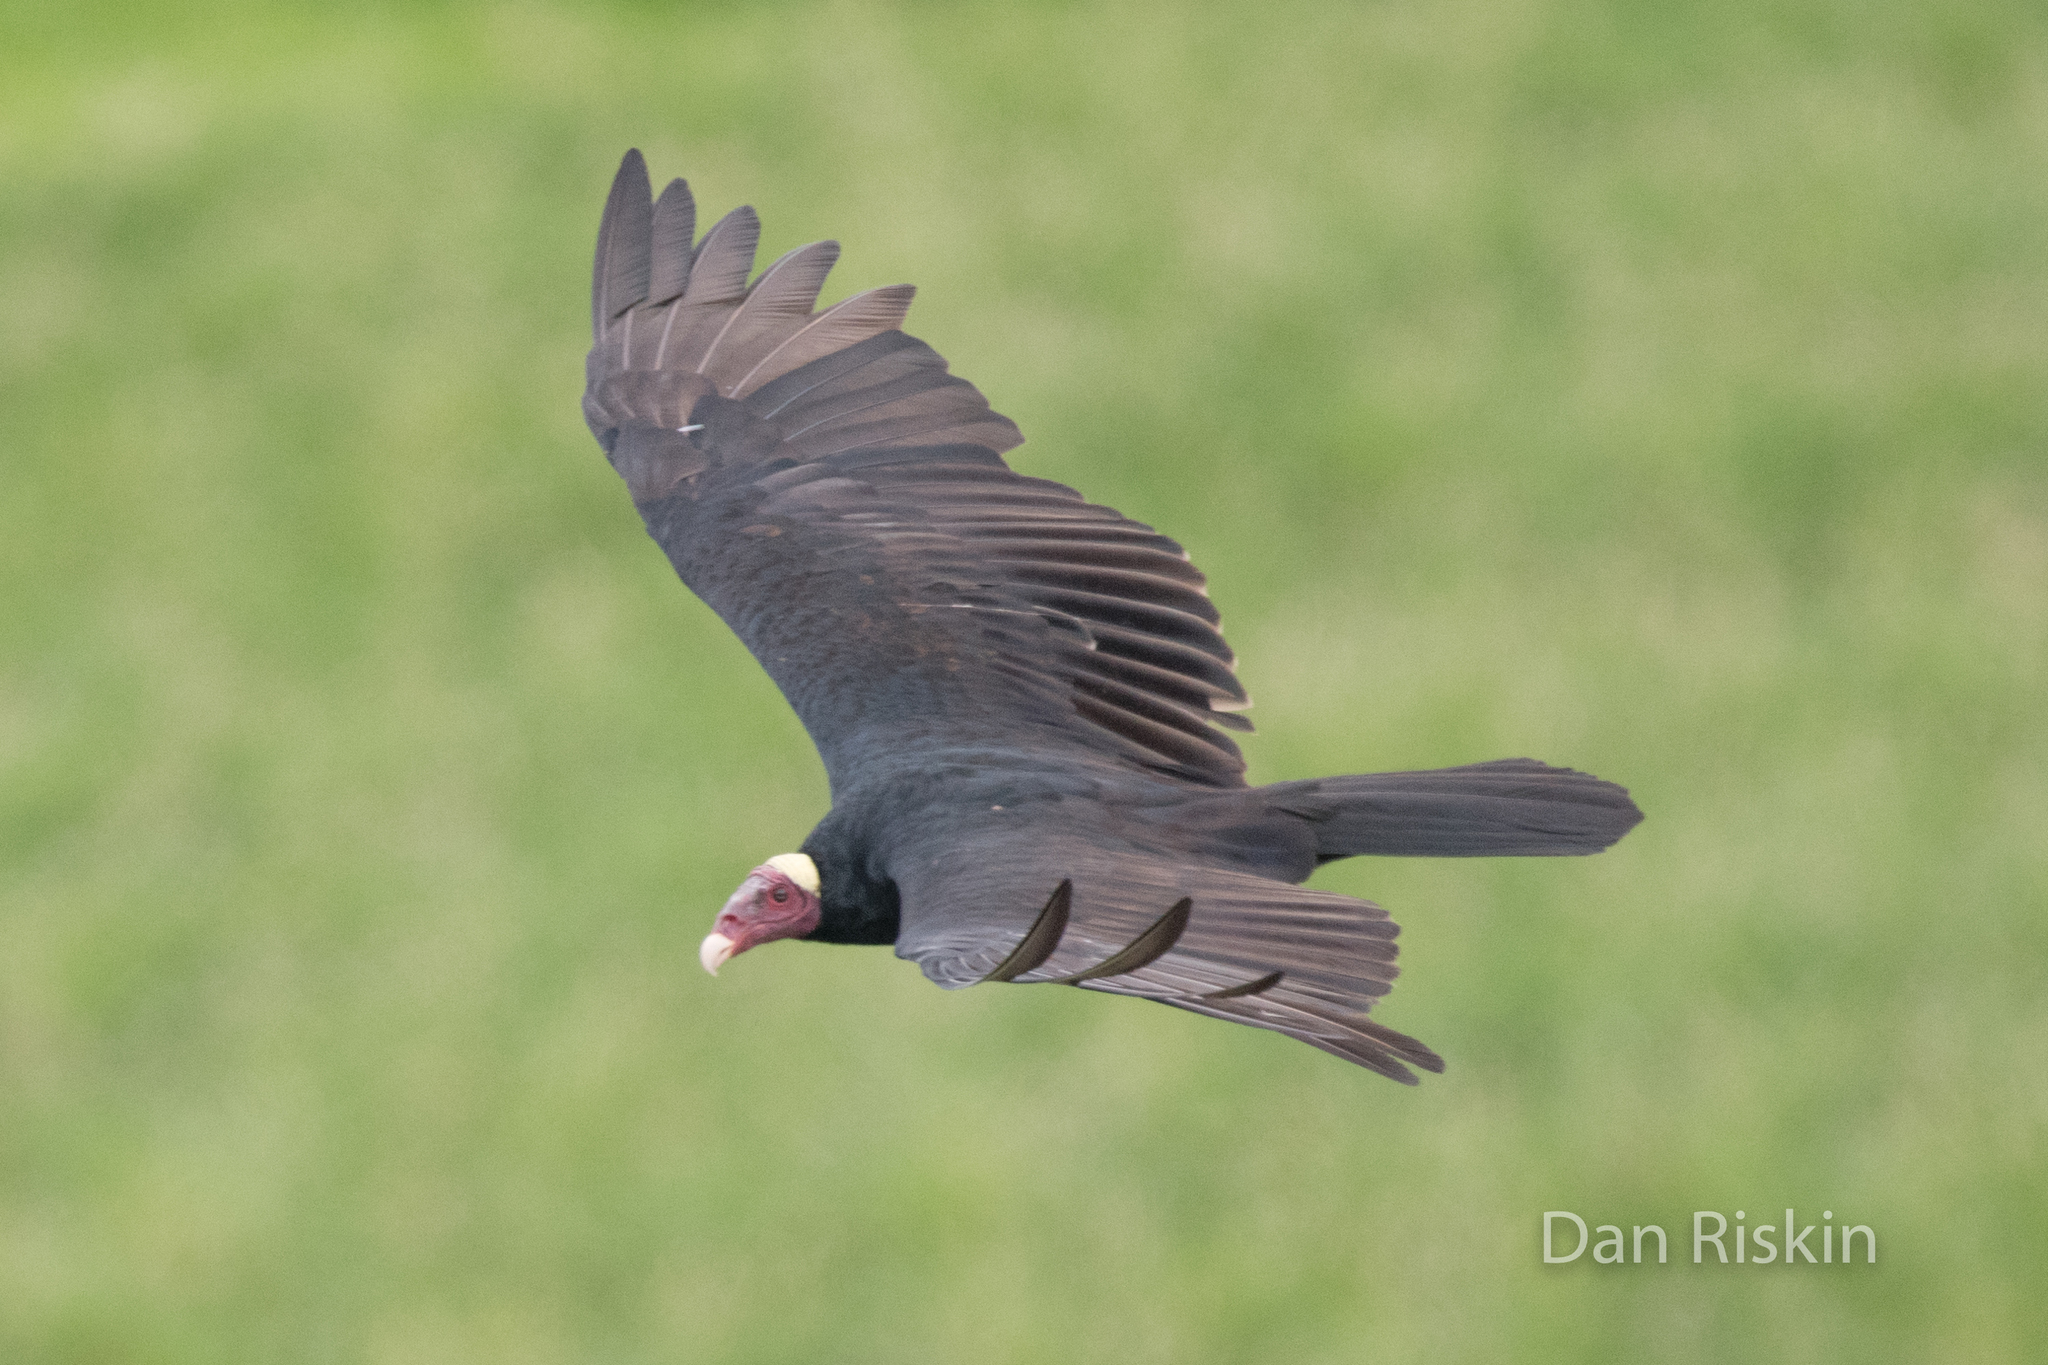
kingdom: Animalia
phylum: Chordata
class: Aves
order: Accipitriformes
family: Cathartidae
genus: Cathartes
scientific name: Cathartes aura
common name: Turkey vulture
